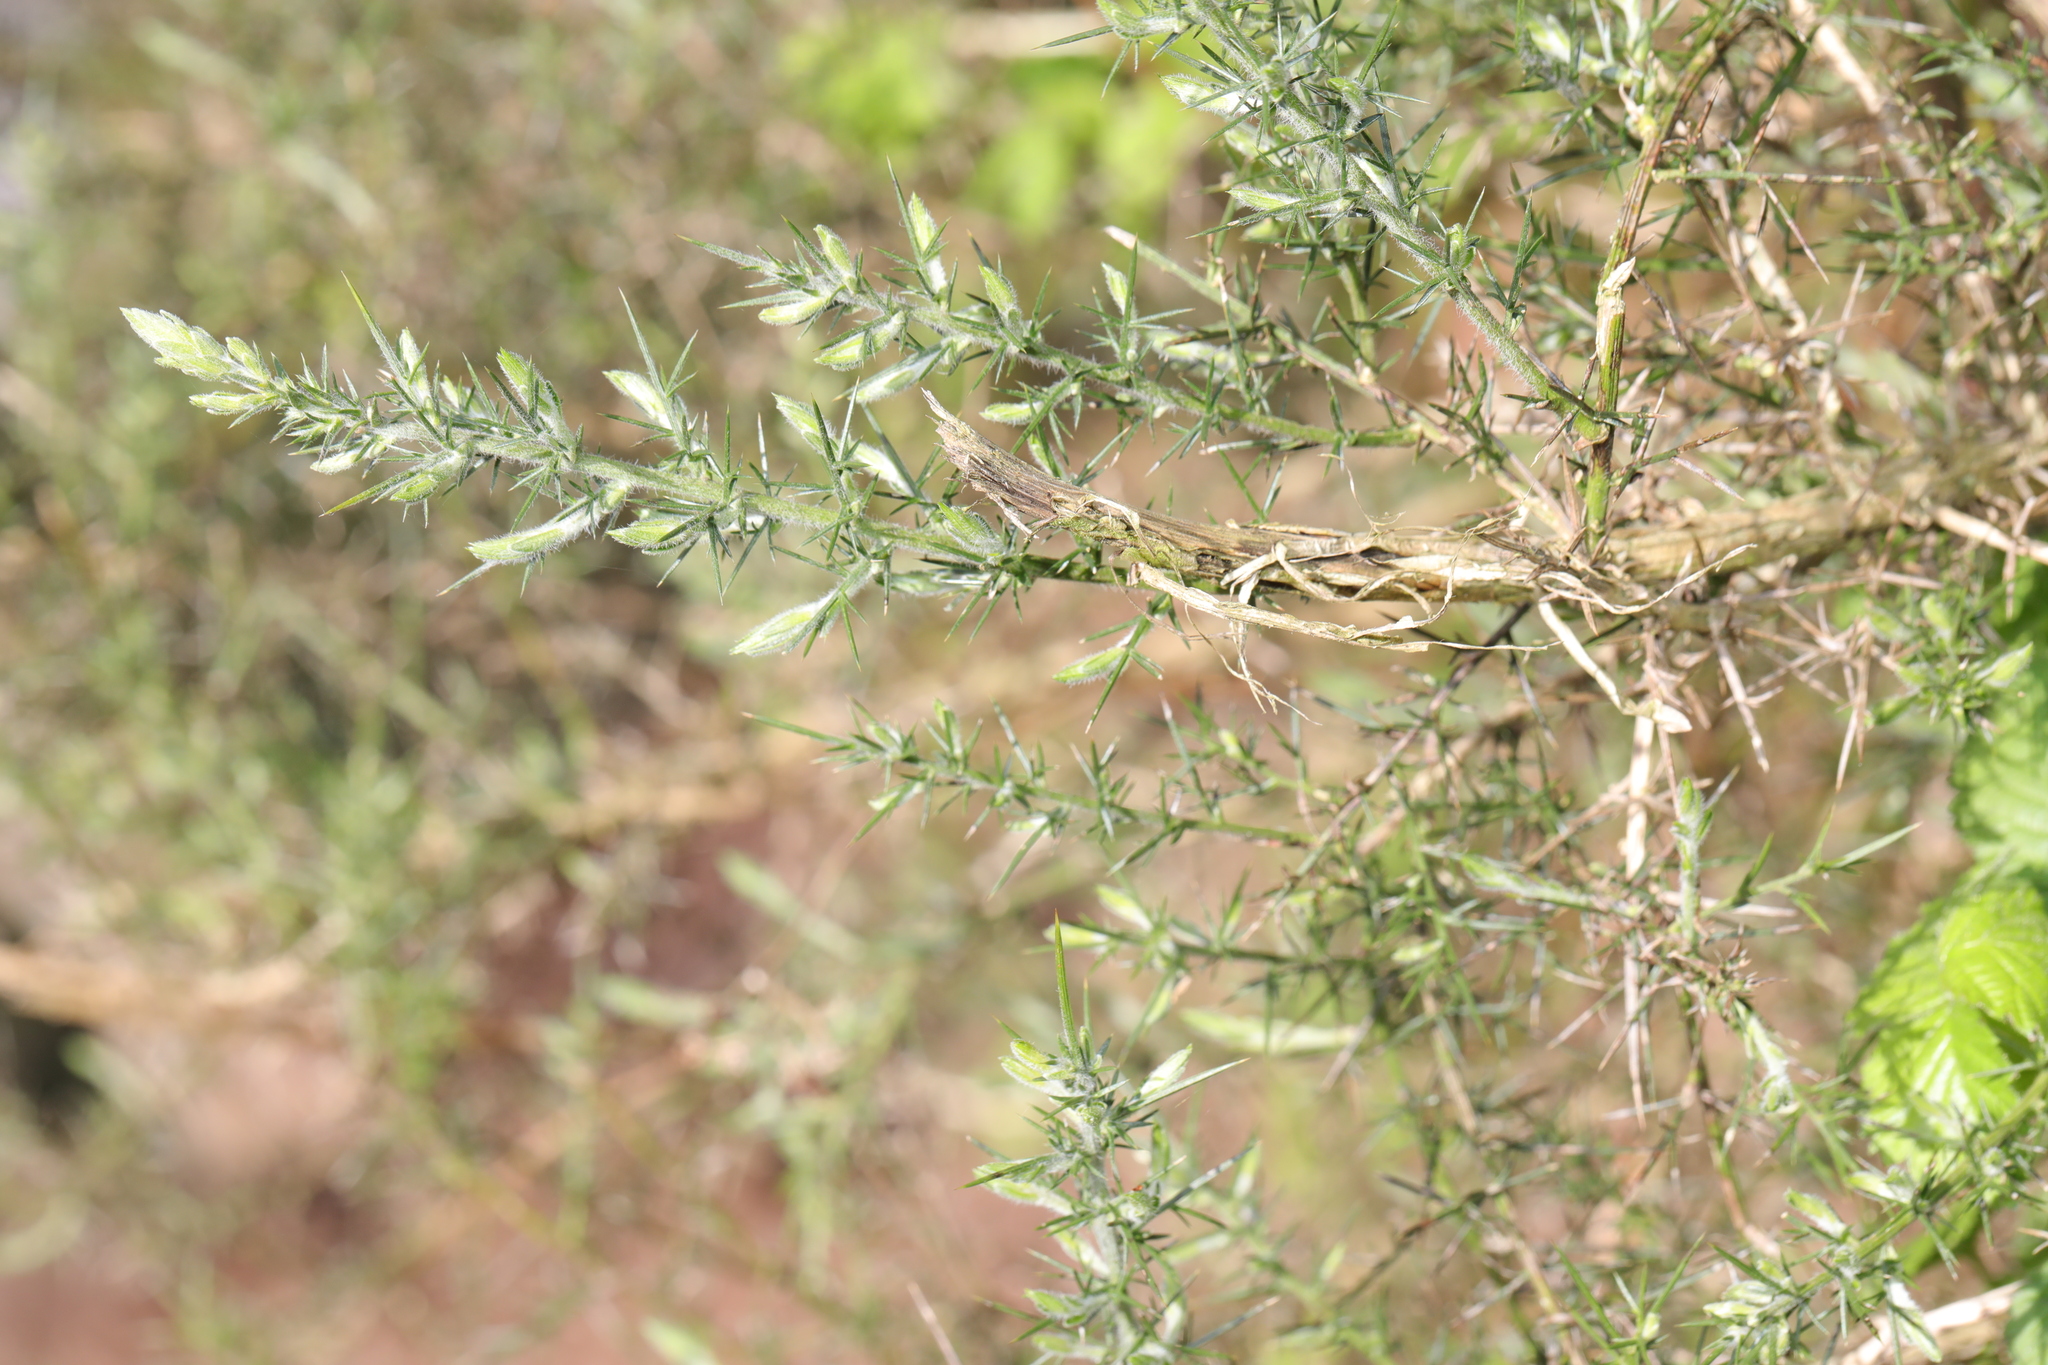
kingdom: Plantae
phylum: Tracheophyta
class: Magnoliopsida
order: Fabales
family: Fabaceae
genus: Ulex
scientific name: Ulex europaeus
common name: Common gorse
